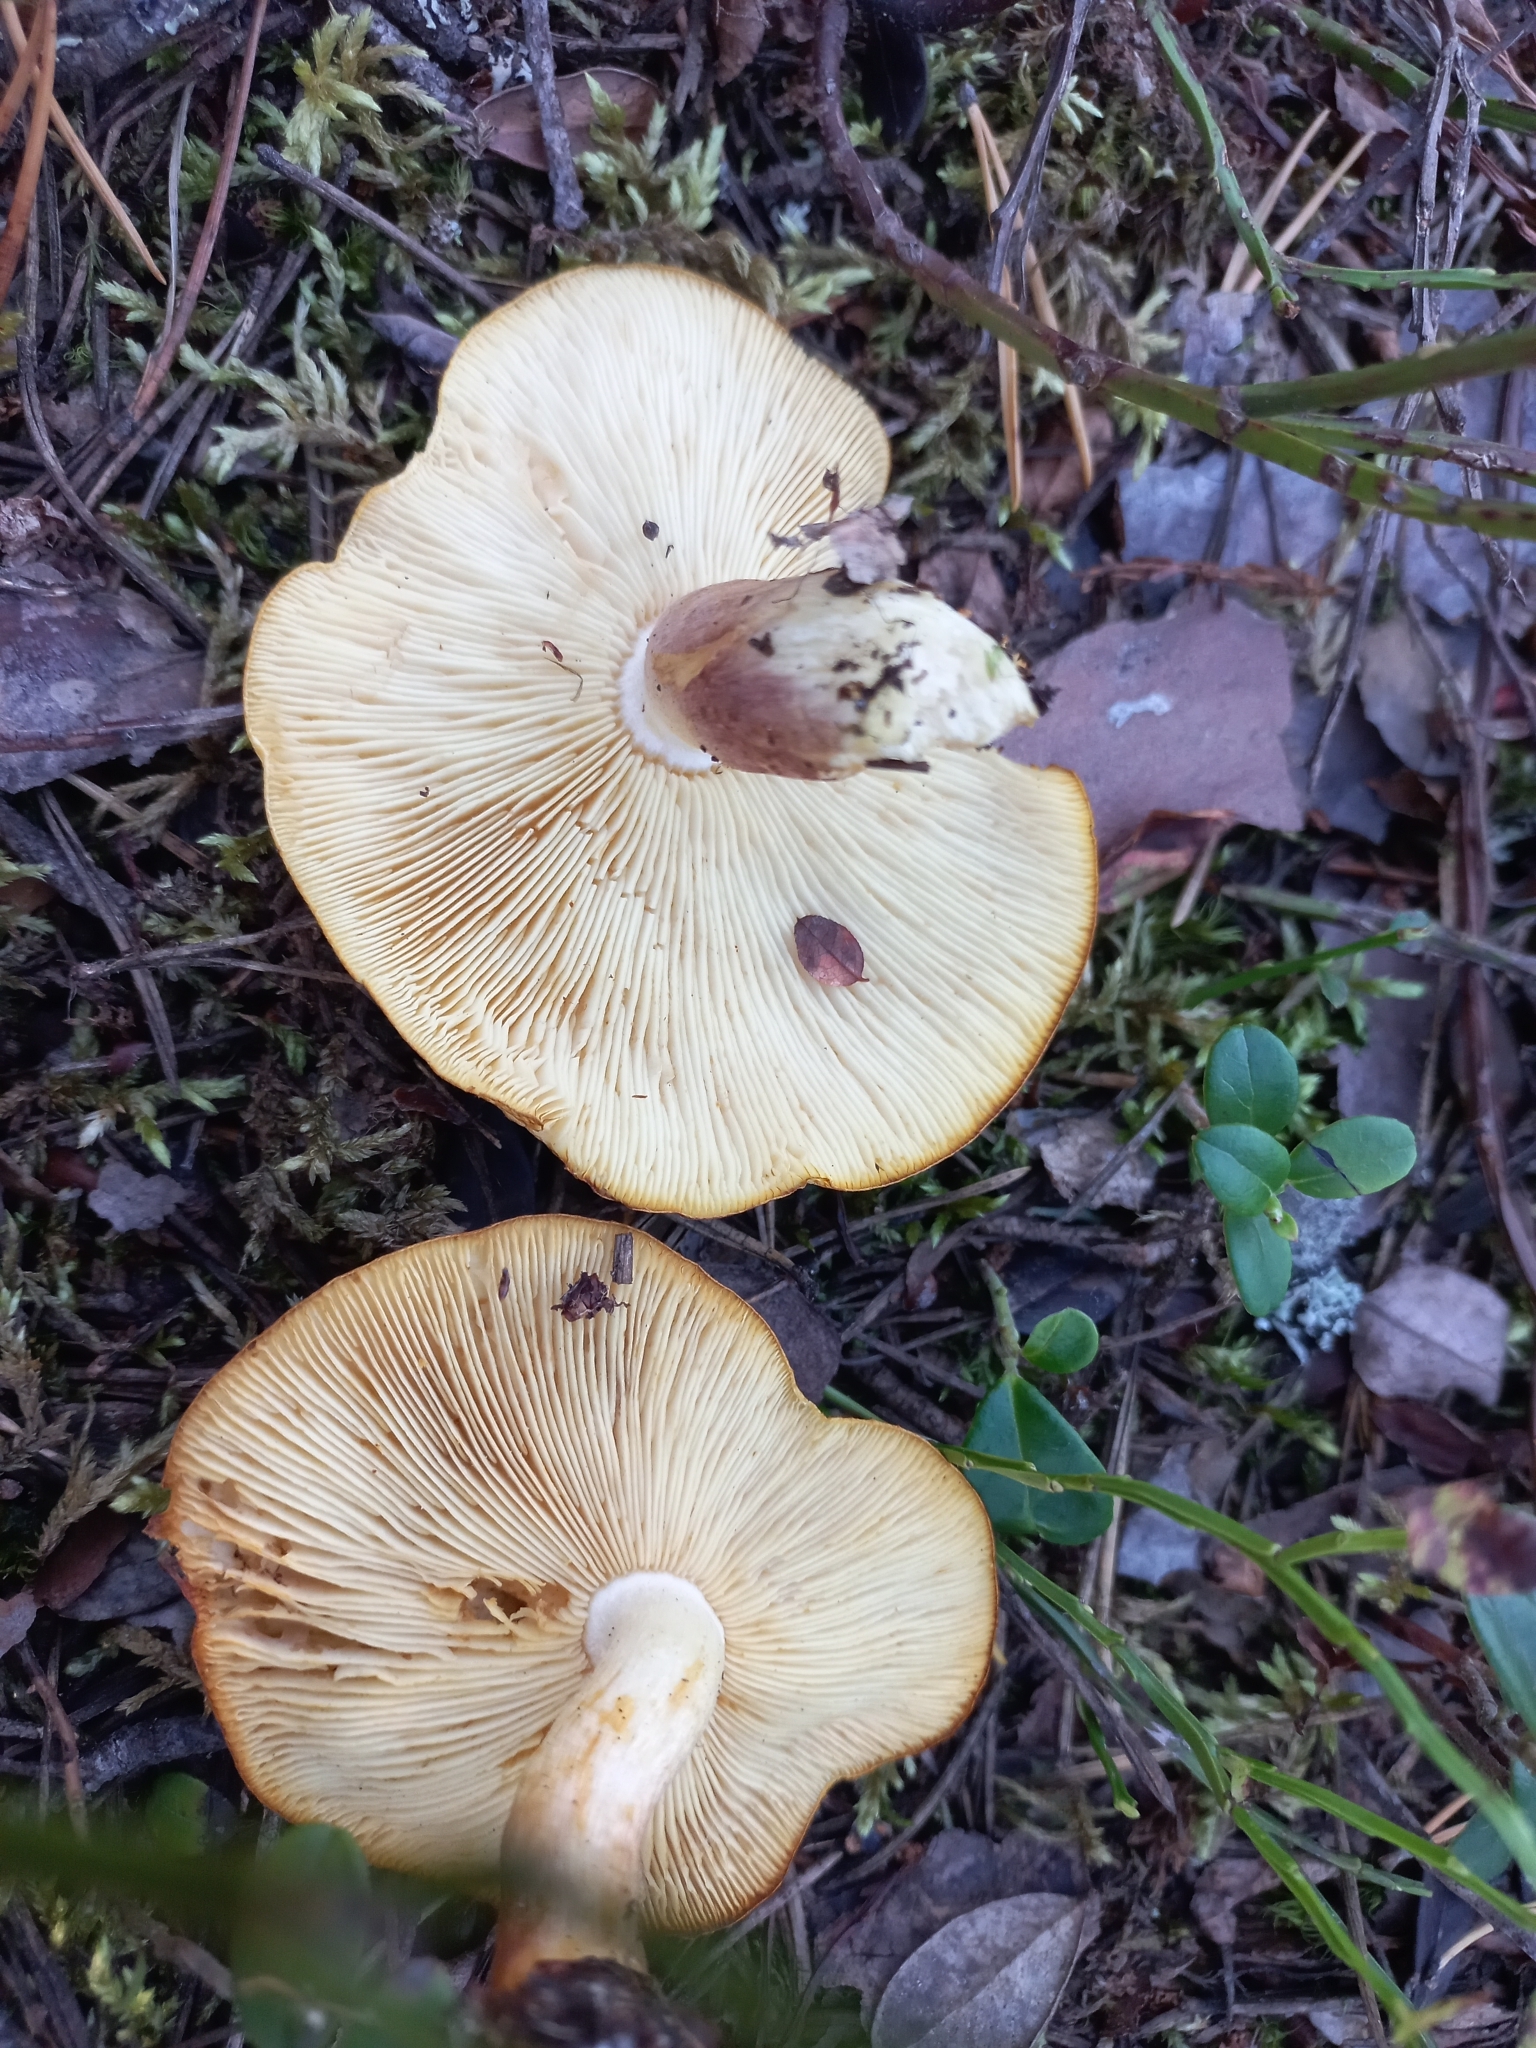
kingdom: Fungi
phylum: Basidiomycota
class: Agaricomycetes
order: Agaricales
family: Tricholomataceae
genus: Tricholomopsis
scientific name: Tricholomopsis rutilans
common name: Plums and custard
